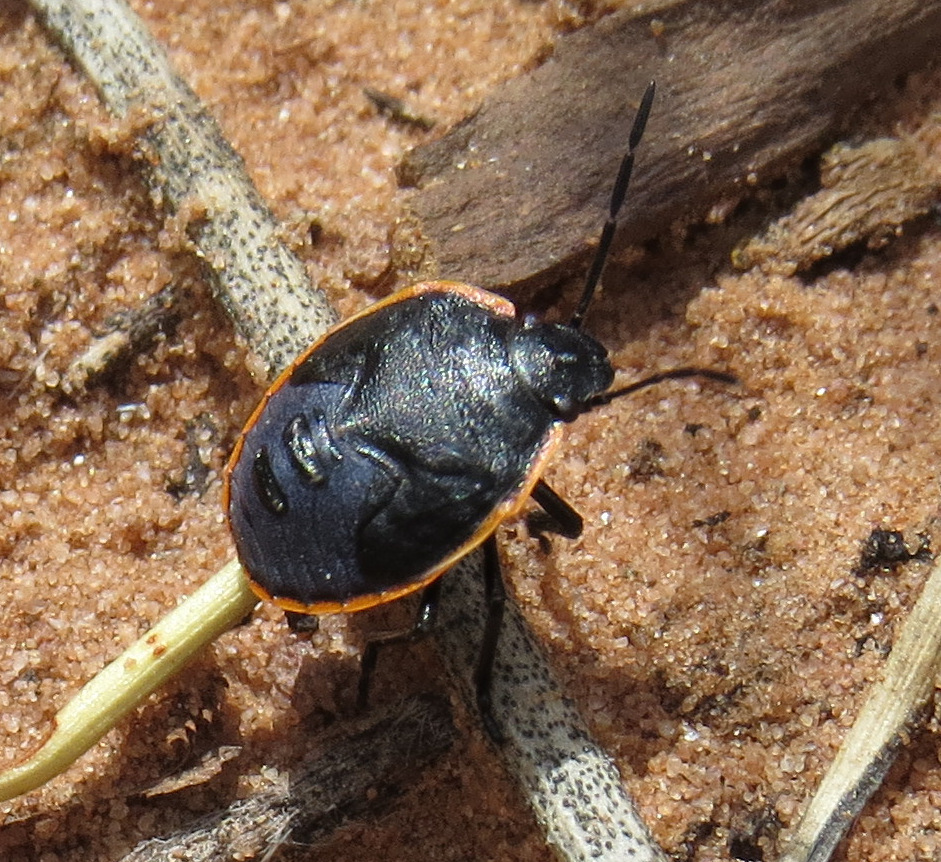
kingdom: Animalia
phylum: Arthropoda
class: Insecta
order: Hemiptera
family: Pentatomidae
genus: Chlorochroa
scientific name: Chlorochroa ligata
